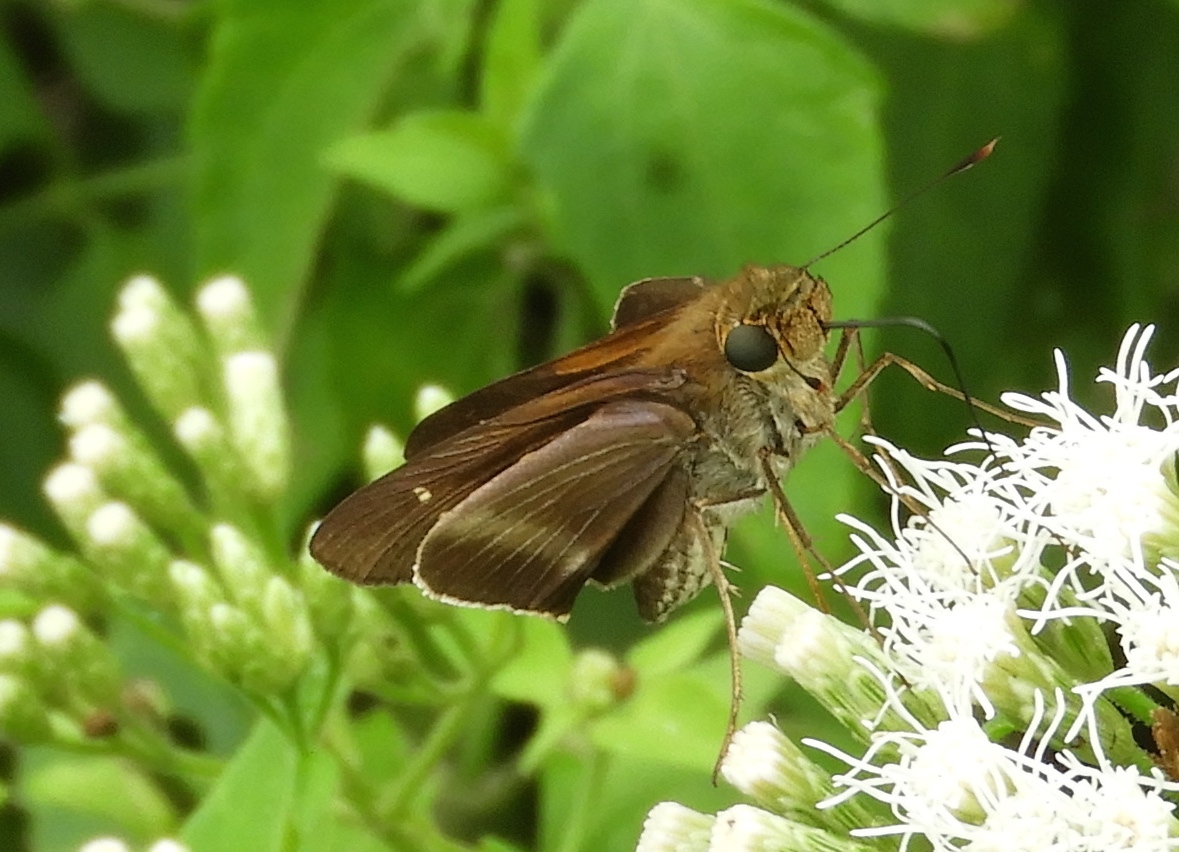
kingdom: Animalia
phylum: Arthropoda
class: Insecta
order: Lepidoptera
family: Hesperiidae
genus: Panoquina
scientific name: Panoquina
